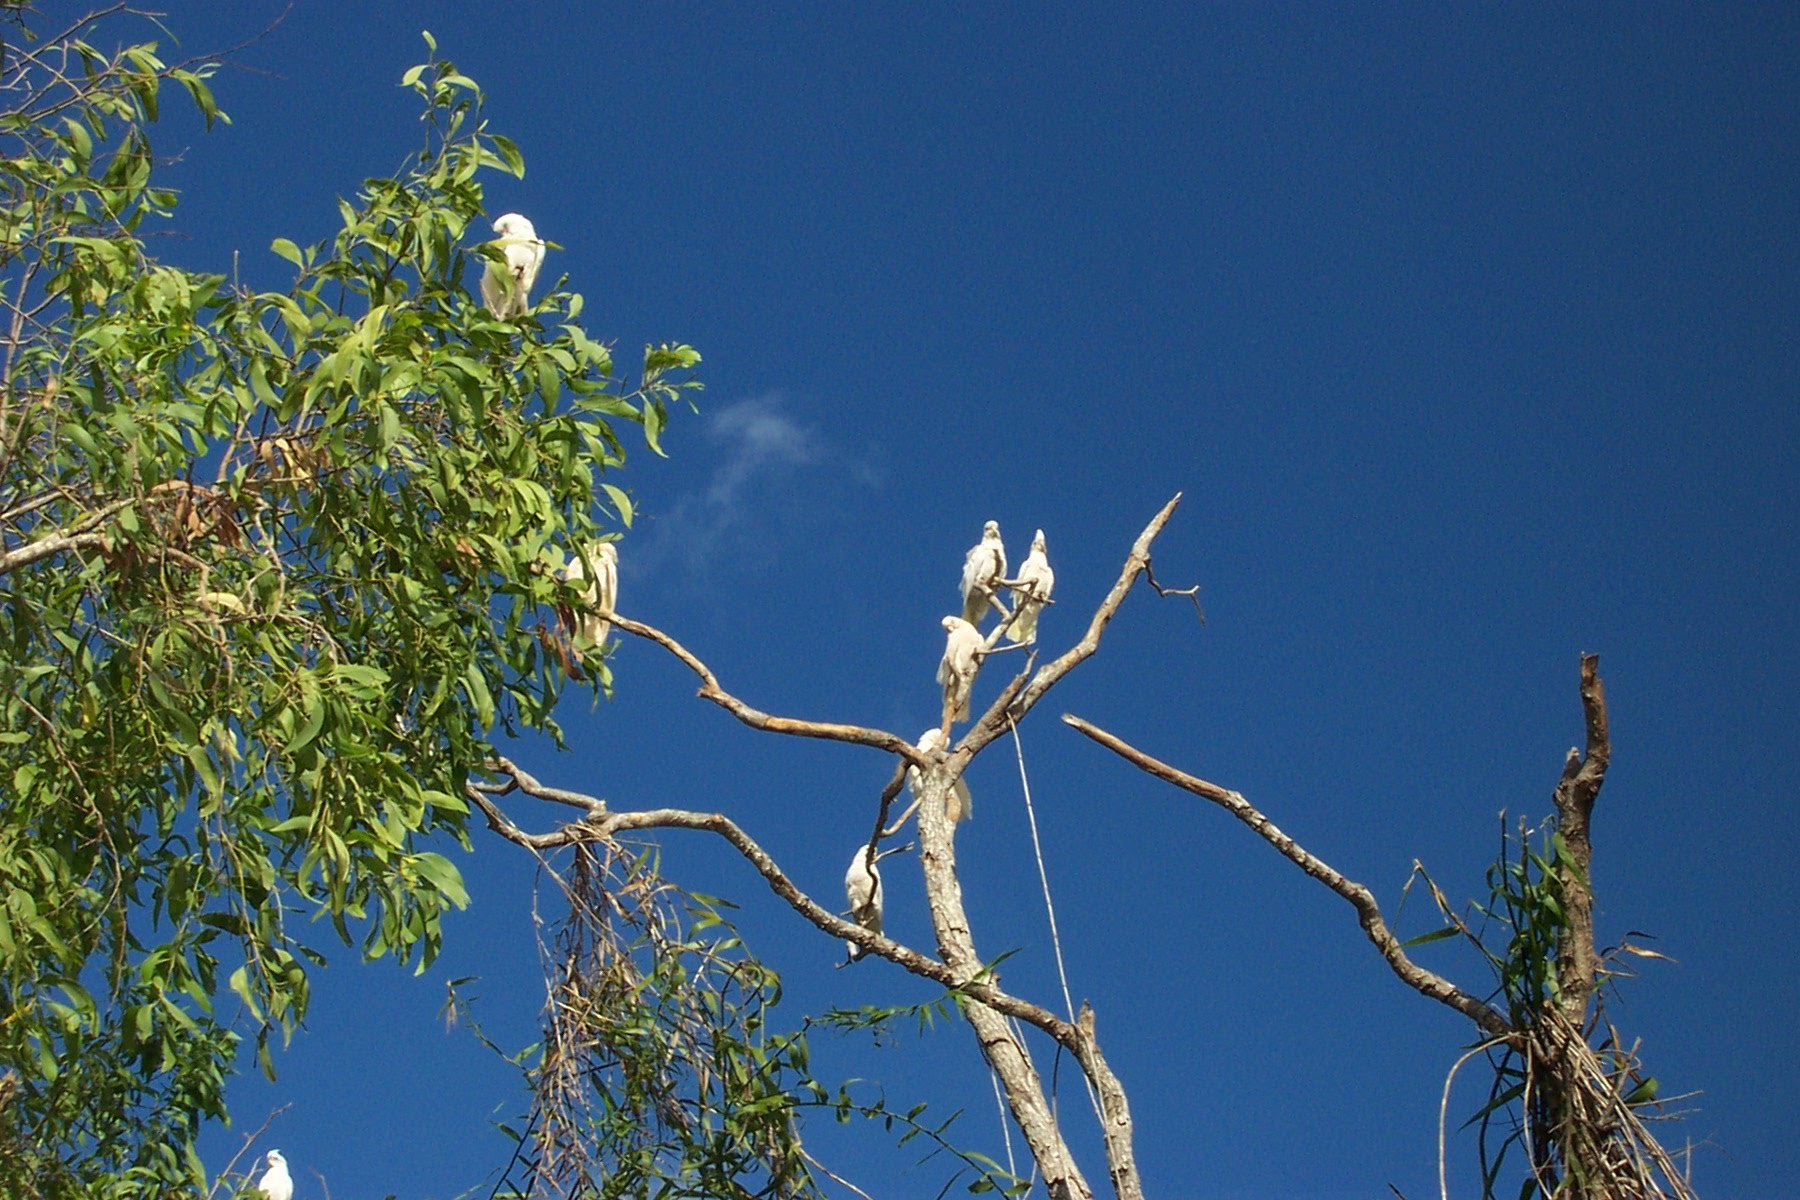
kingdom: Animalia
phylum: Chordata
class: Aves
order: Psittaciformes
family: Psittacidae
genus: Cacatua
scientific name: Cacatua sanguinea
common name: Little corella
